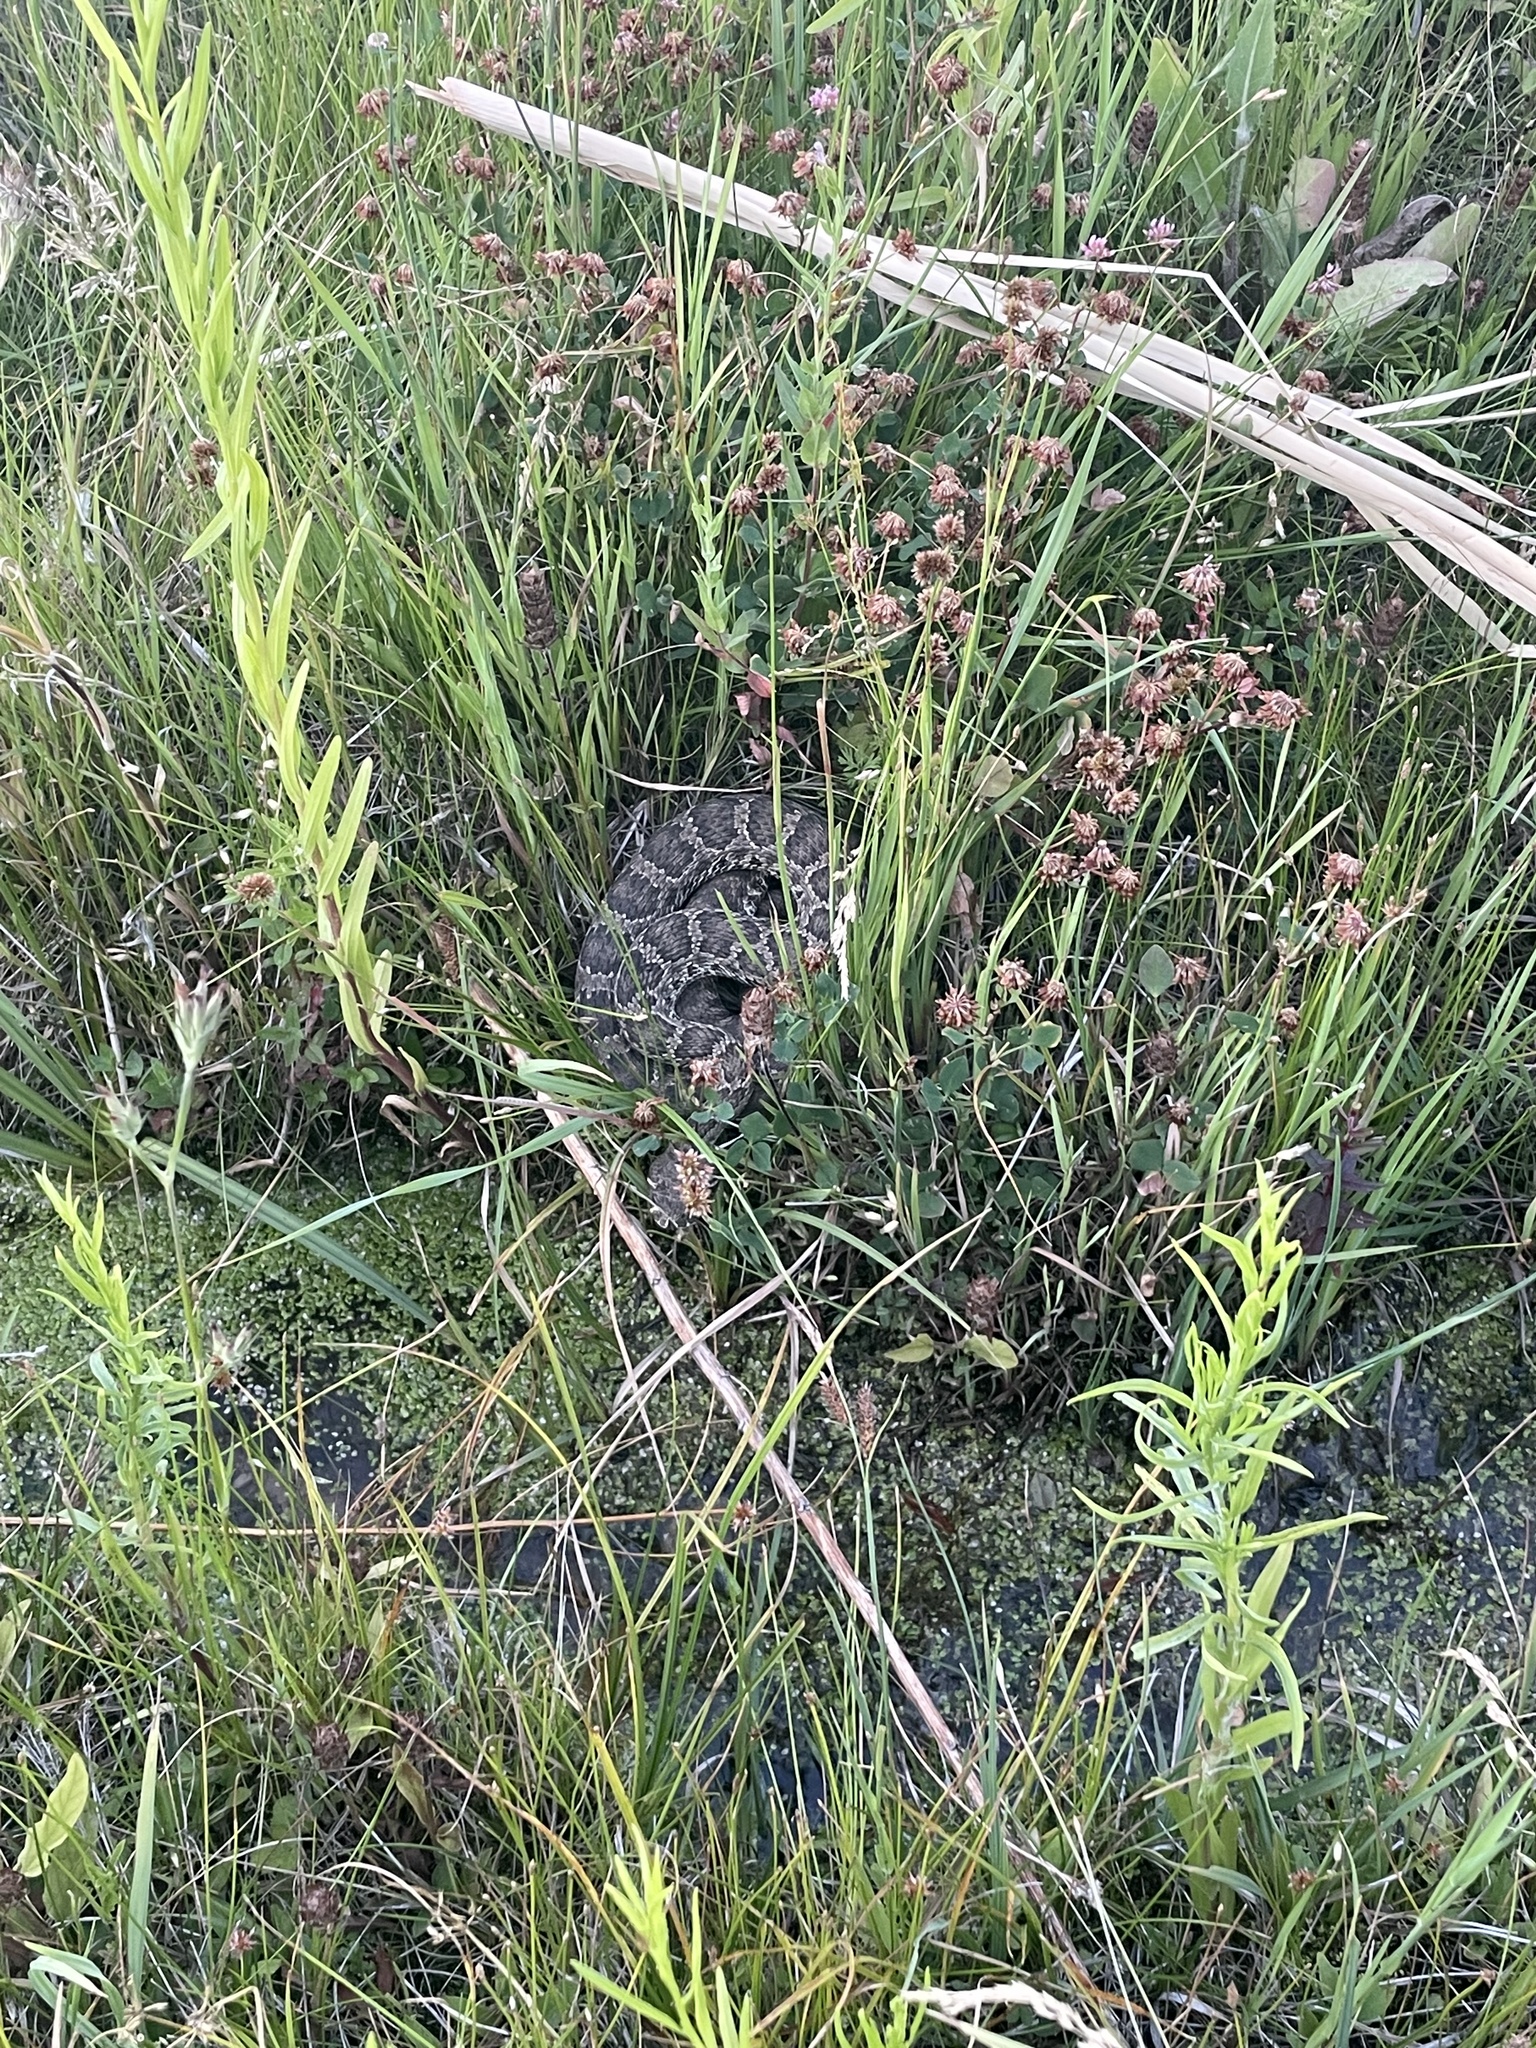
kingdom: Animalia
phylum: Chordata
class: Squamata
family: Viperidae
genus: Crotalus
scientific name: Crotalus viridis
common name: Prairie rattlesnake
